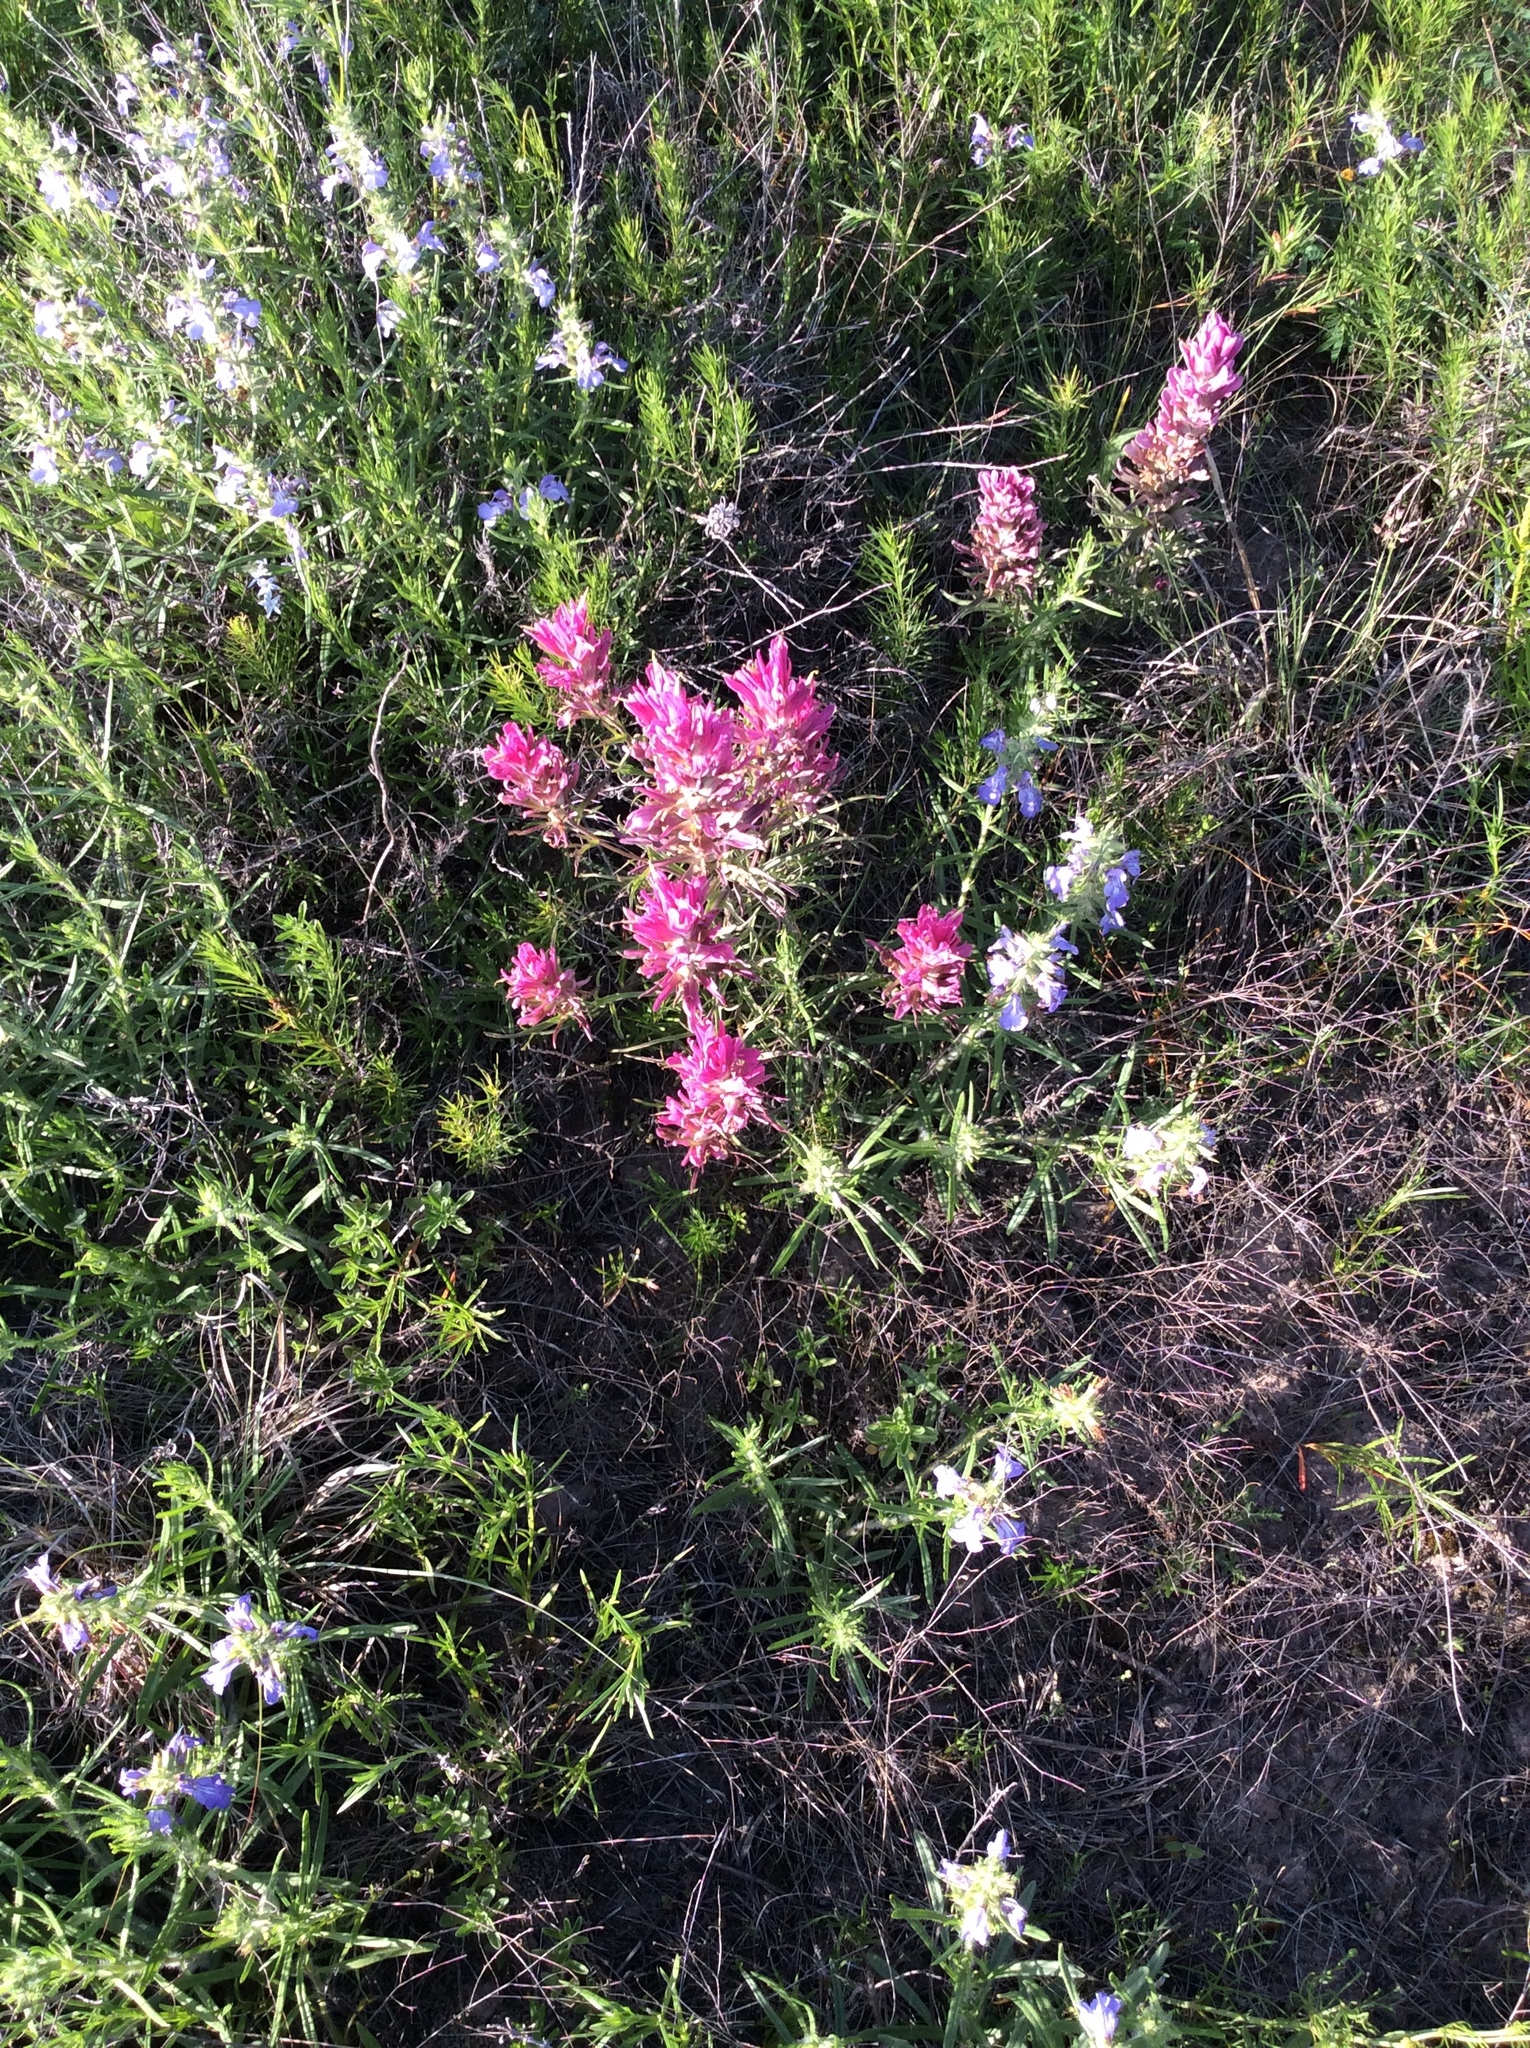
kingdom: Plantae
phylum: Tracheophyta
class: Magnoliopsida
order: Lamiales
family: Orobanchaceae
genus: Castilleja
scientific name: Castilleja purpurea
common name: Plains paintbrush
